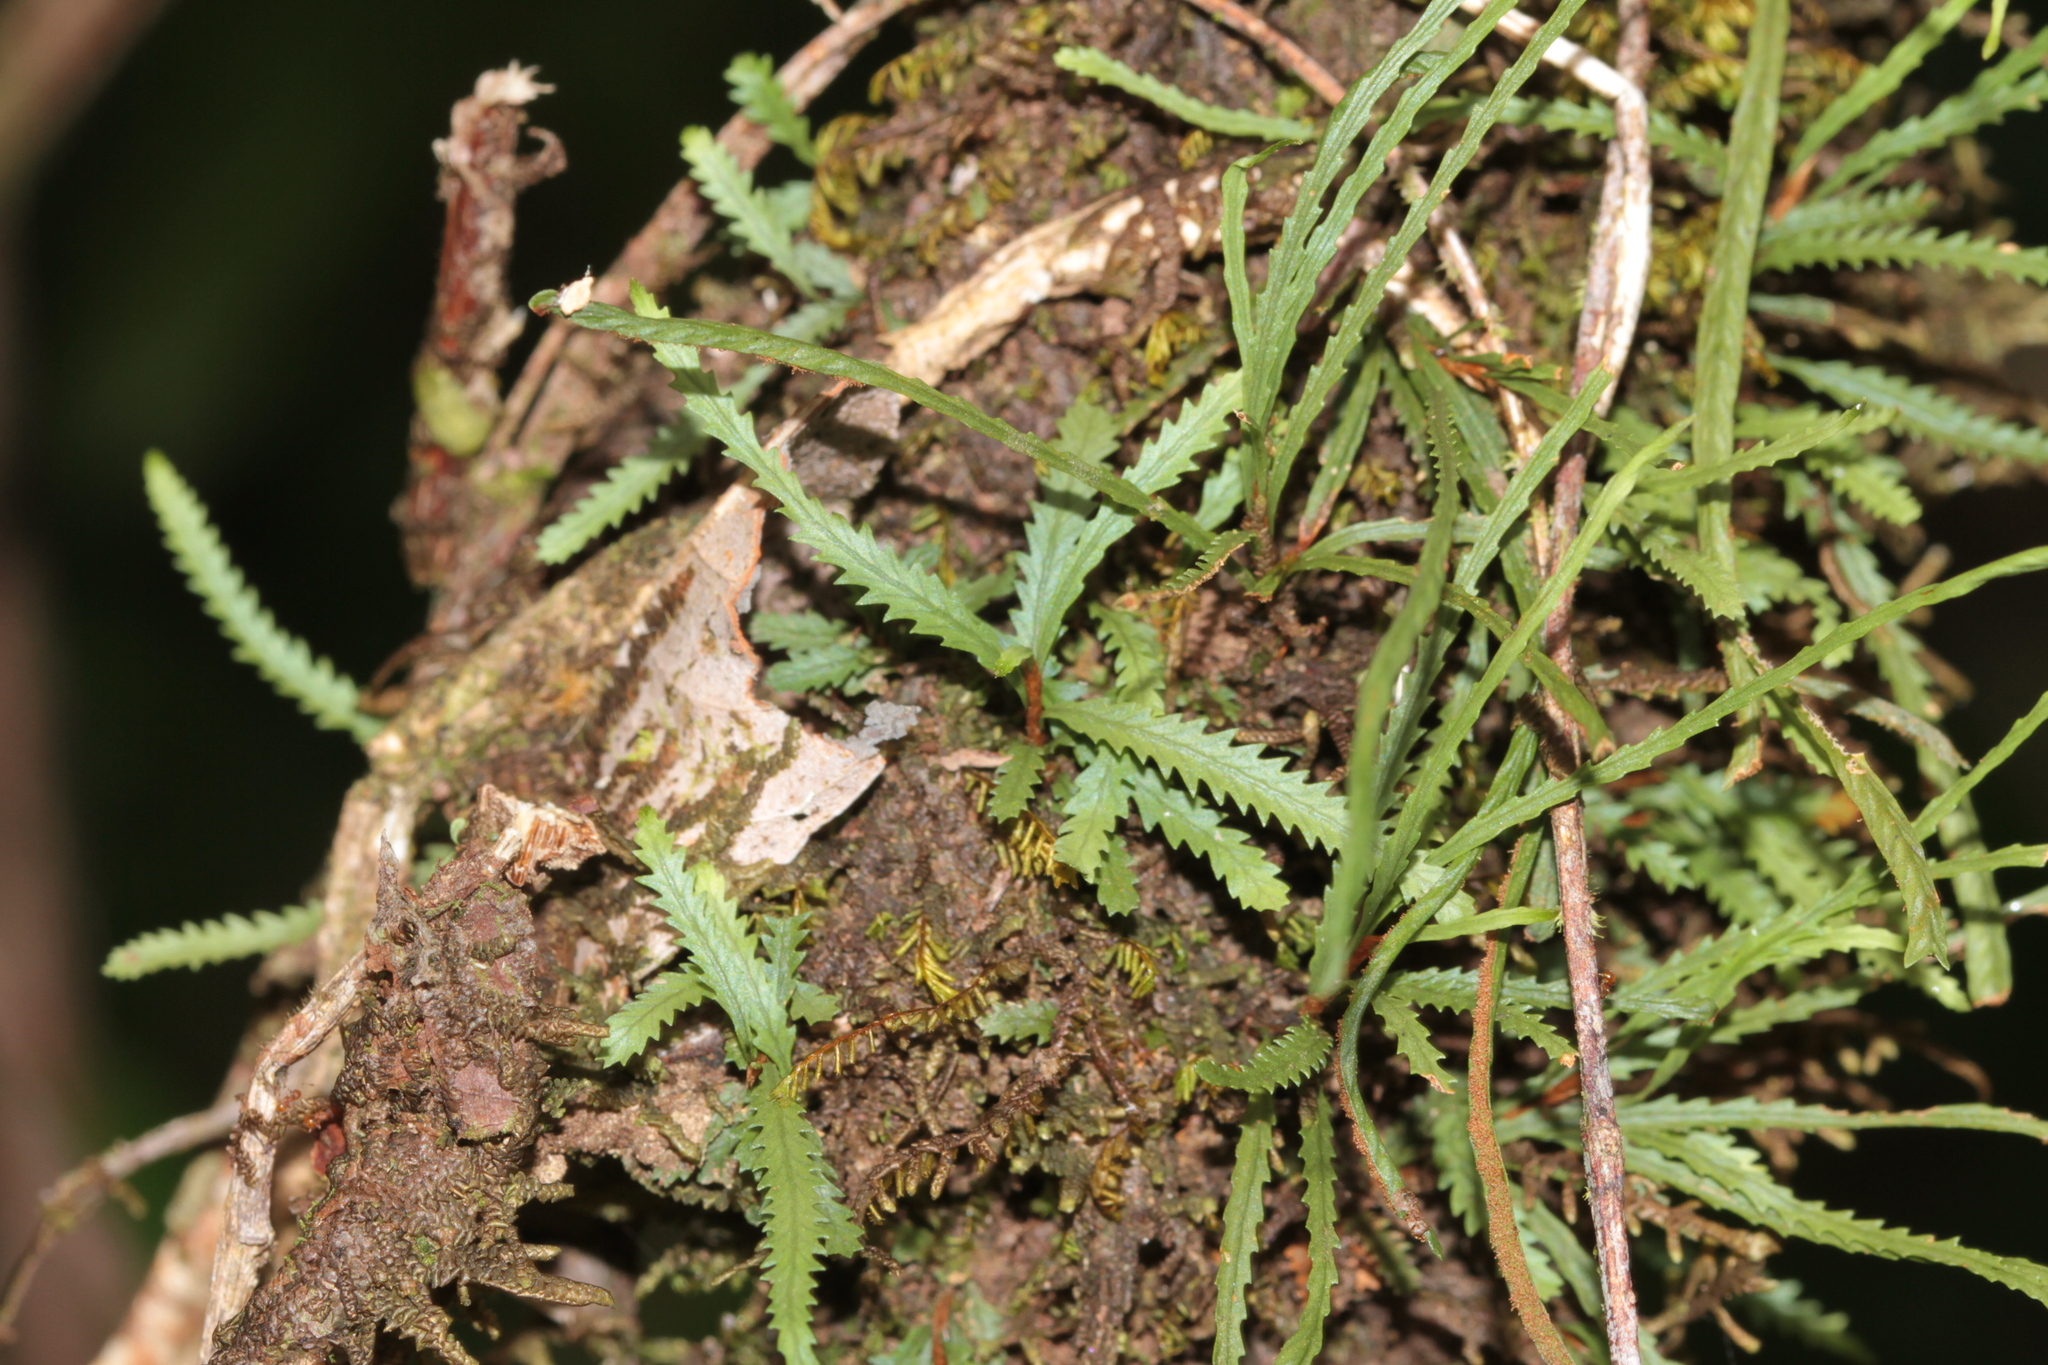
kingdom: Plantae
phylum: Tracheophyta
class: Polypodiopsida
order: Polypodiales
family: Polypodiaceae
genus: Cochlidium
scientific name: Cochlidium serrulatum
